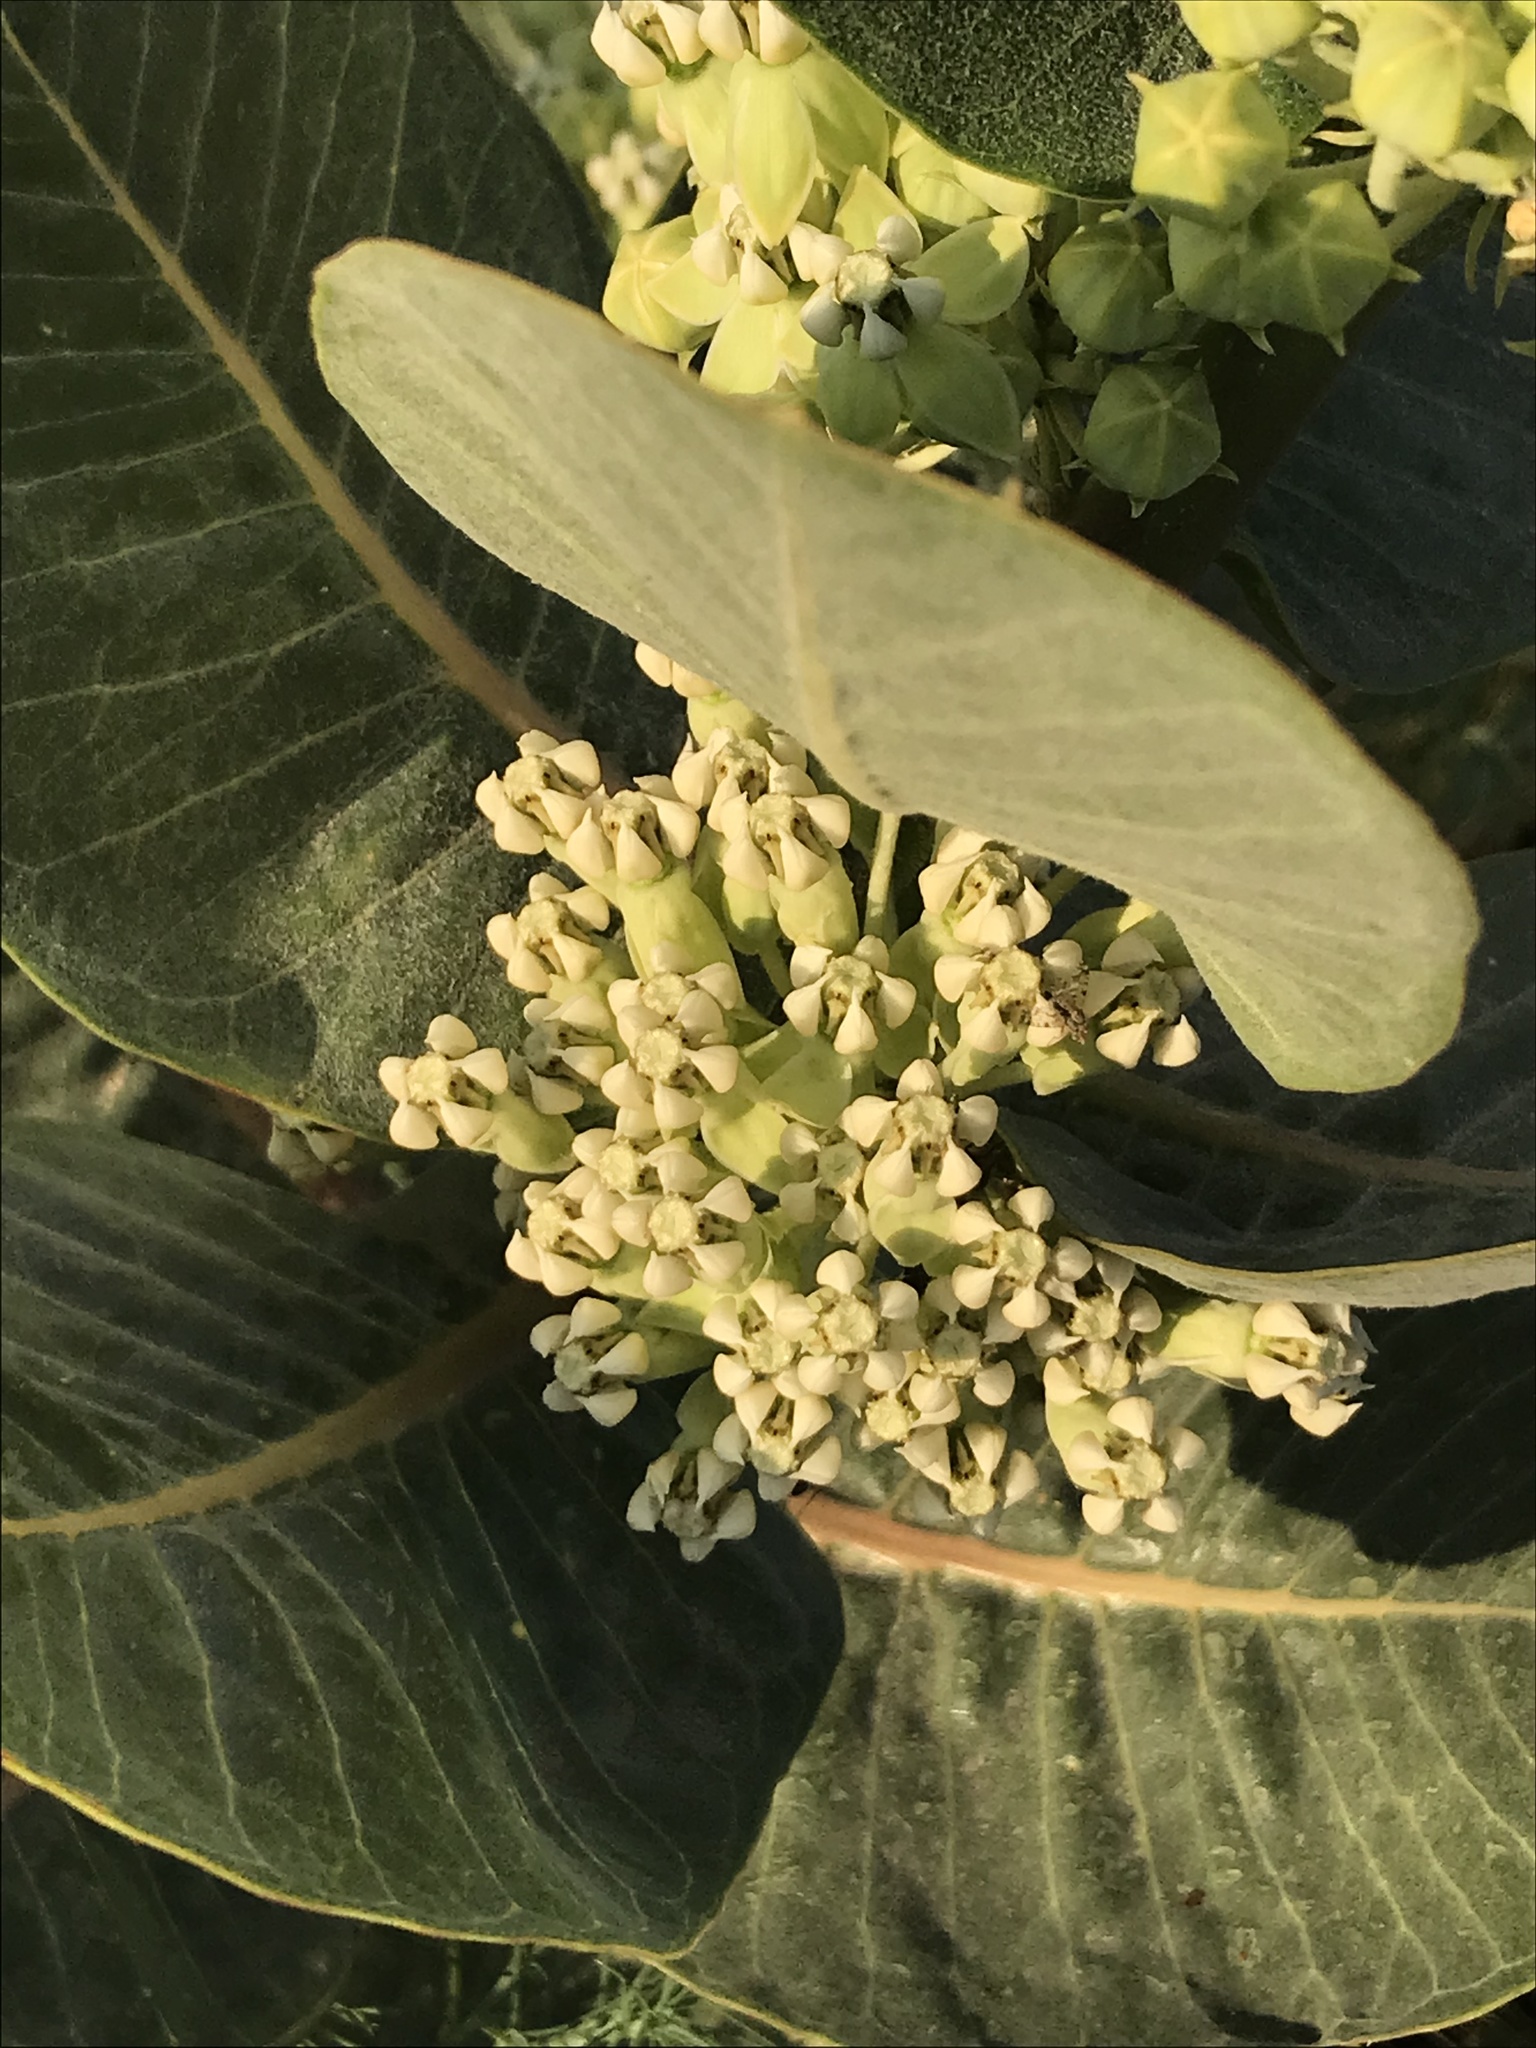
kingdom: Plantae
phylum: Tracheophyta
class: Magnoliopsida
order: Gentianales
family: Apocynaceae
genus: Asclepias
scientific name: Asclepias latifolia
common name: Broadleaf milkweed
